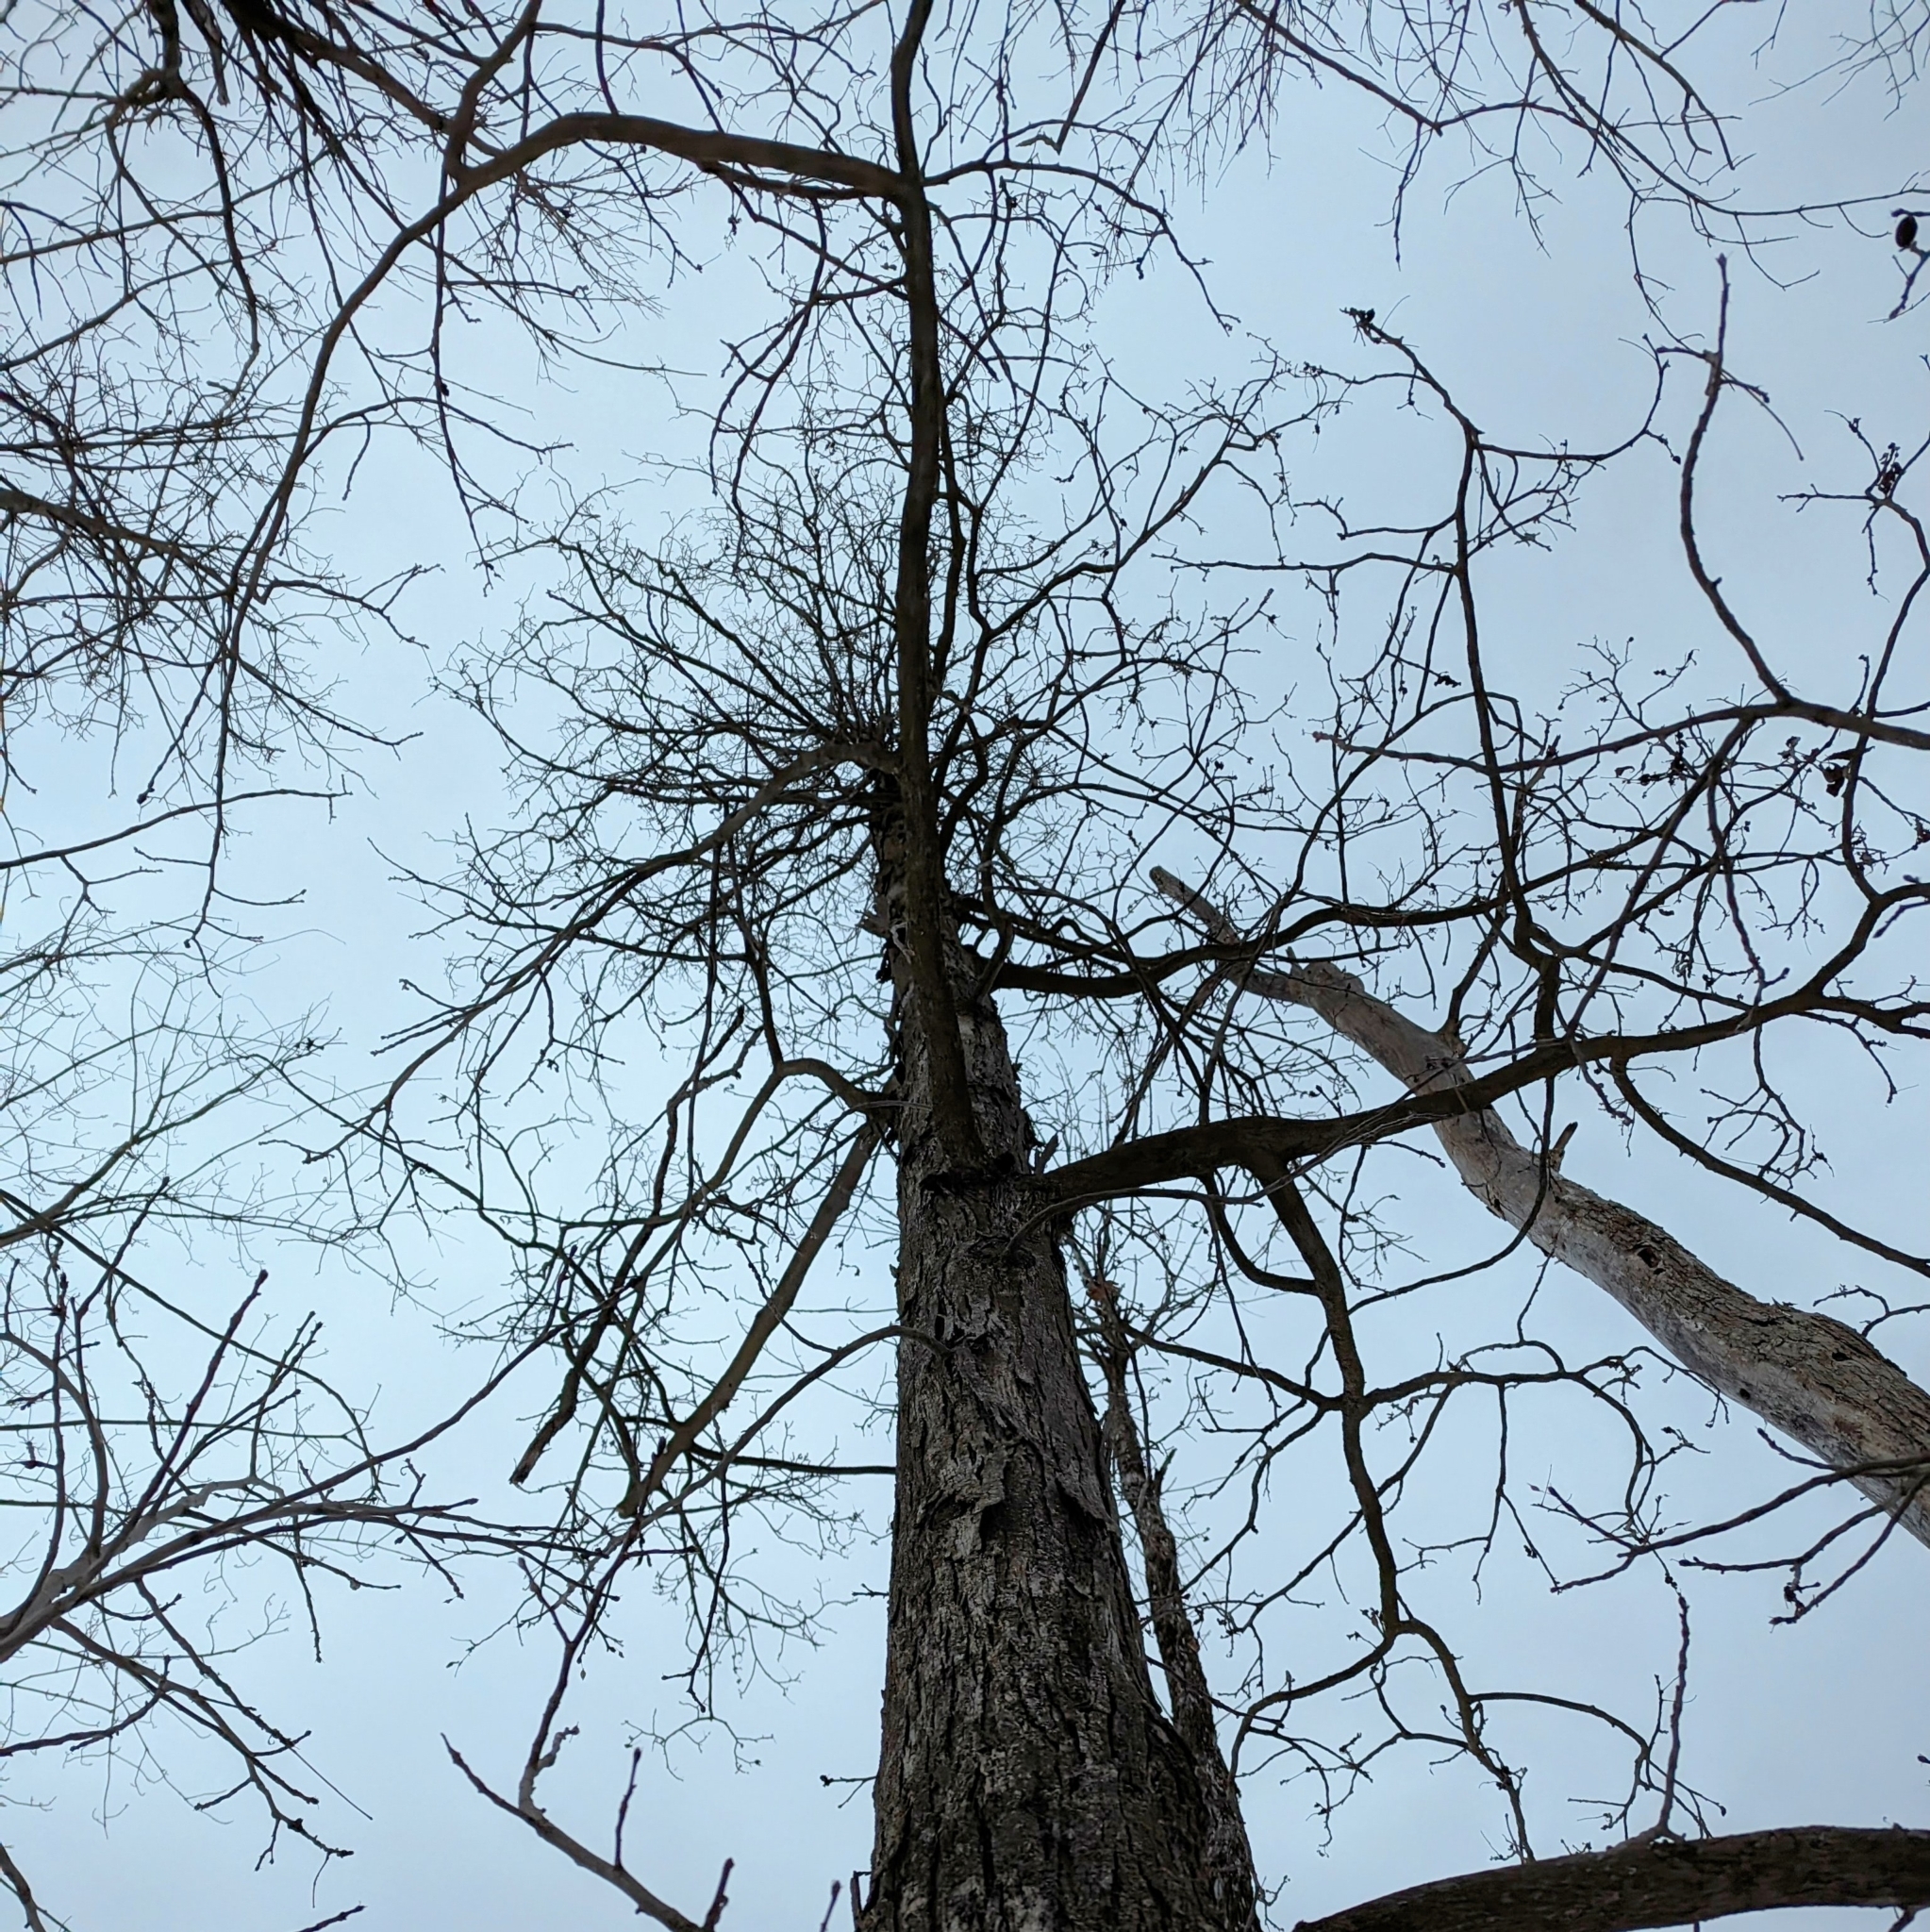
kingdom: Plantae
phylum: Tracheophyta
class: Magnoliopsida
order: Fagales
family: Juglandaceae
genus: Carya
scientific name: Carya ovata
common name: Shagbark hickory
